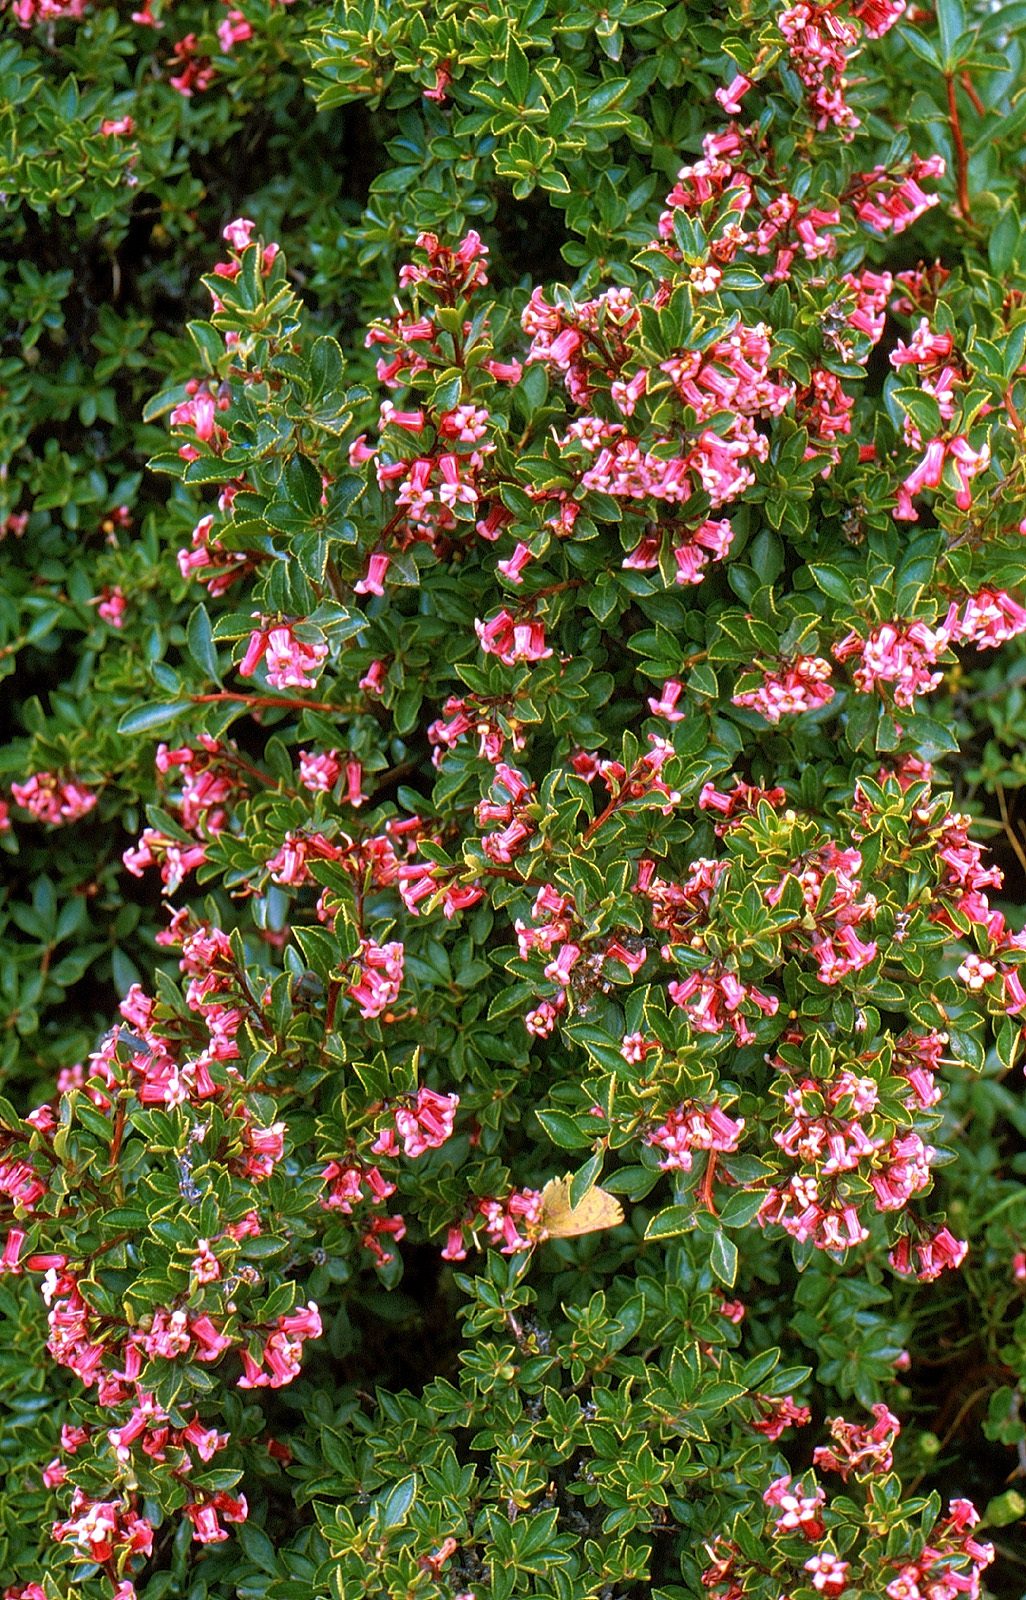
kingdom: Plantae
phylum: Tracheophyta
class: Magnoliopsida
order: Escalloniales
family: Escalloniaceae
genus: Escallonia
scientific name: Escallonia rubra
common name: Redclaws
